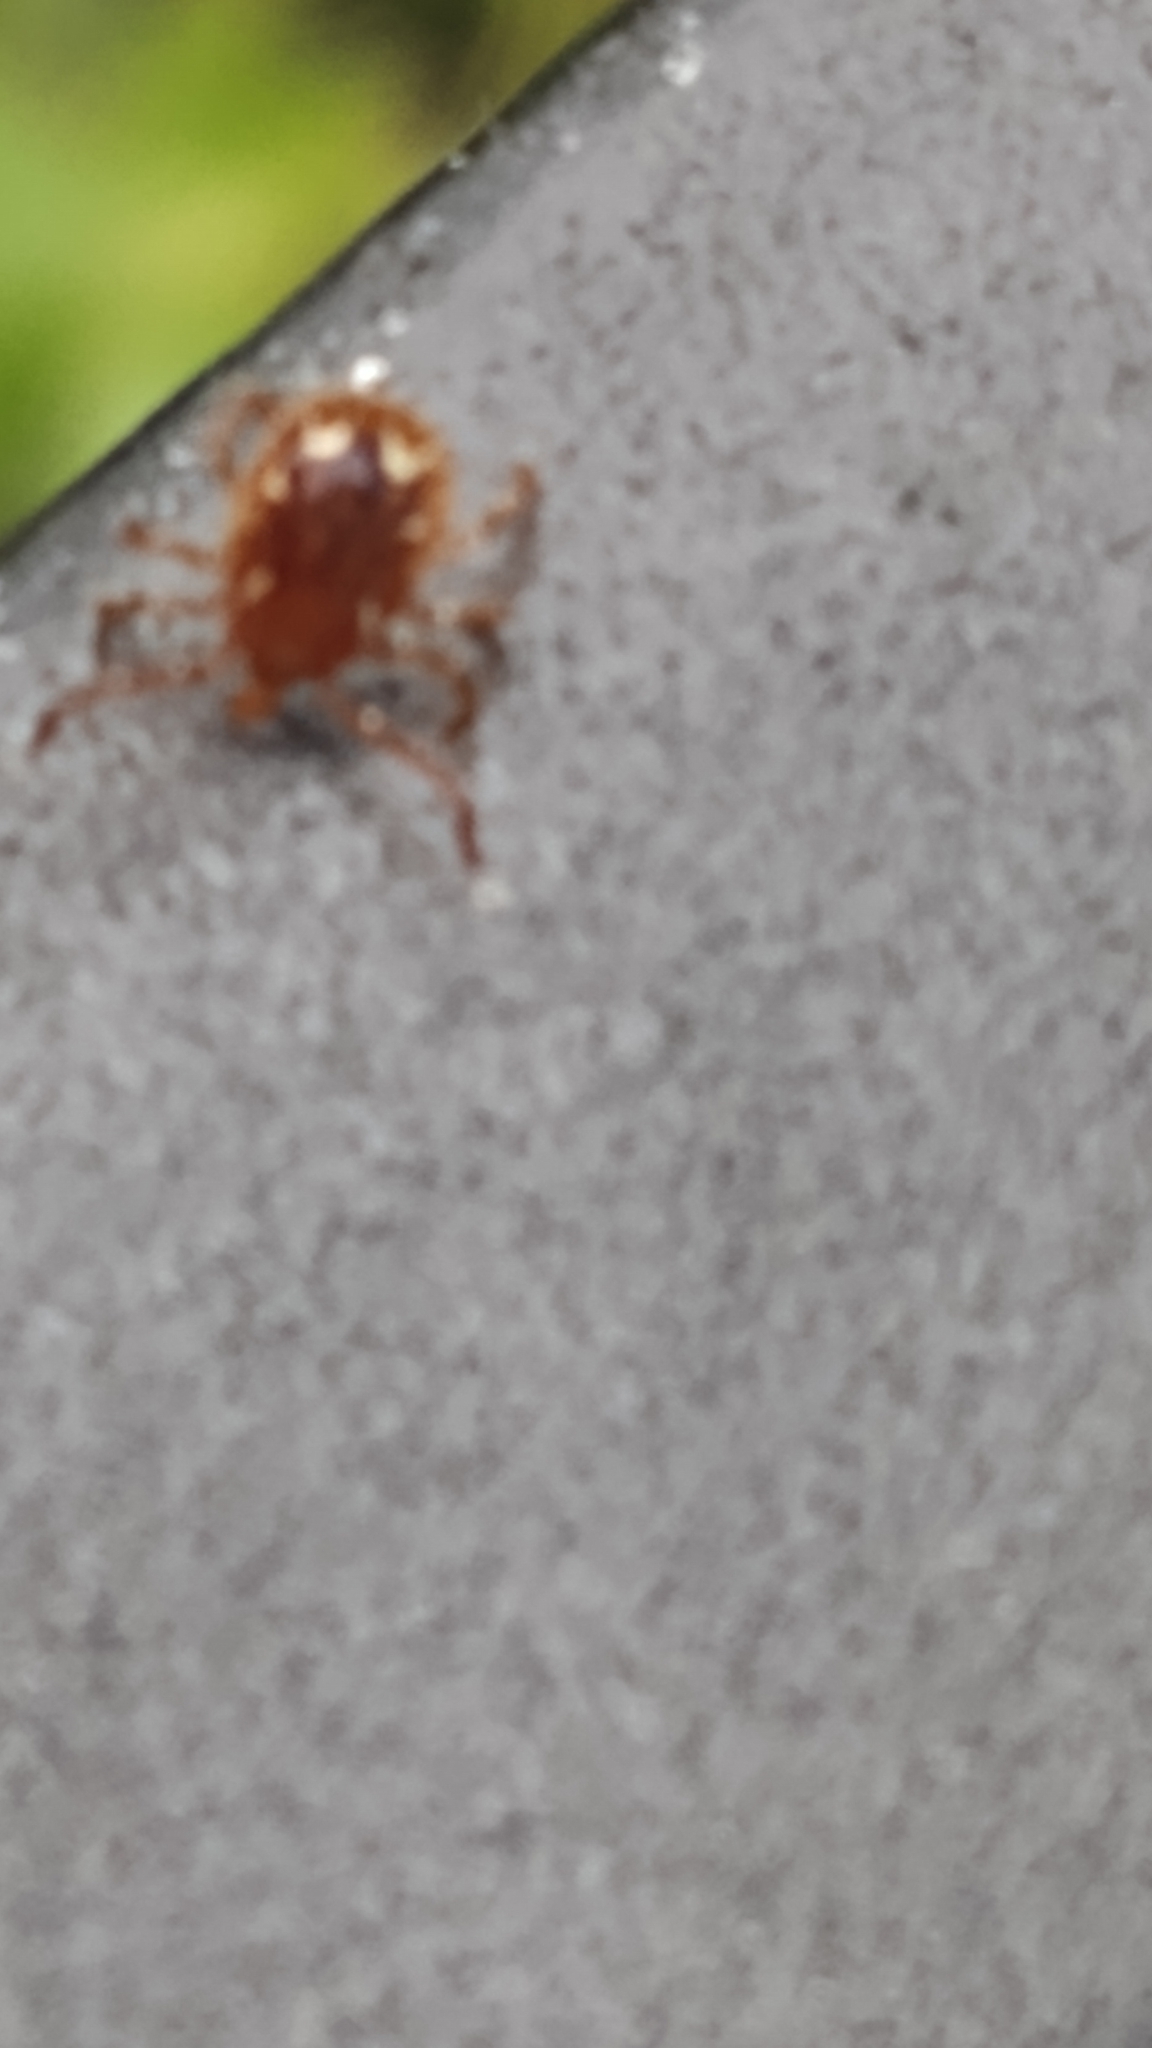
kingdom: Animalia
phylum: Arthropoda
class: Arachnida
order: Ixodida
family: Ixodidae
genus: Amblyomma
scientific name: Amblyomma americanum
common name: Lone star tick
